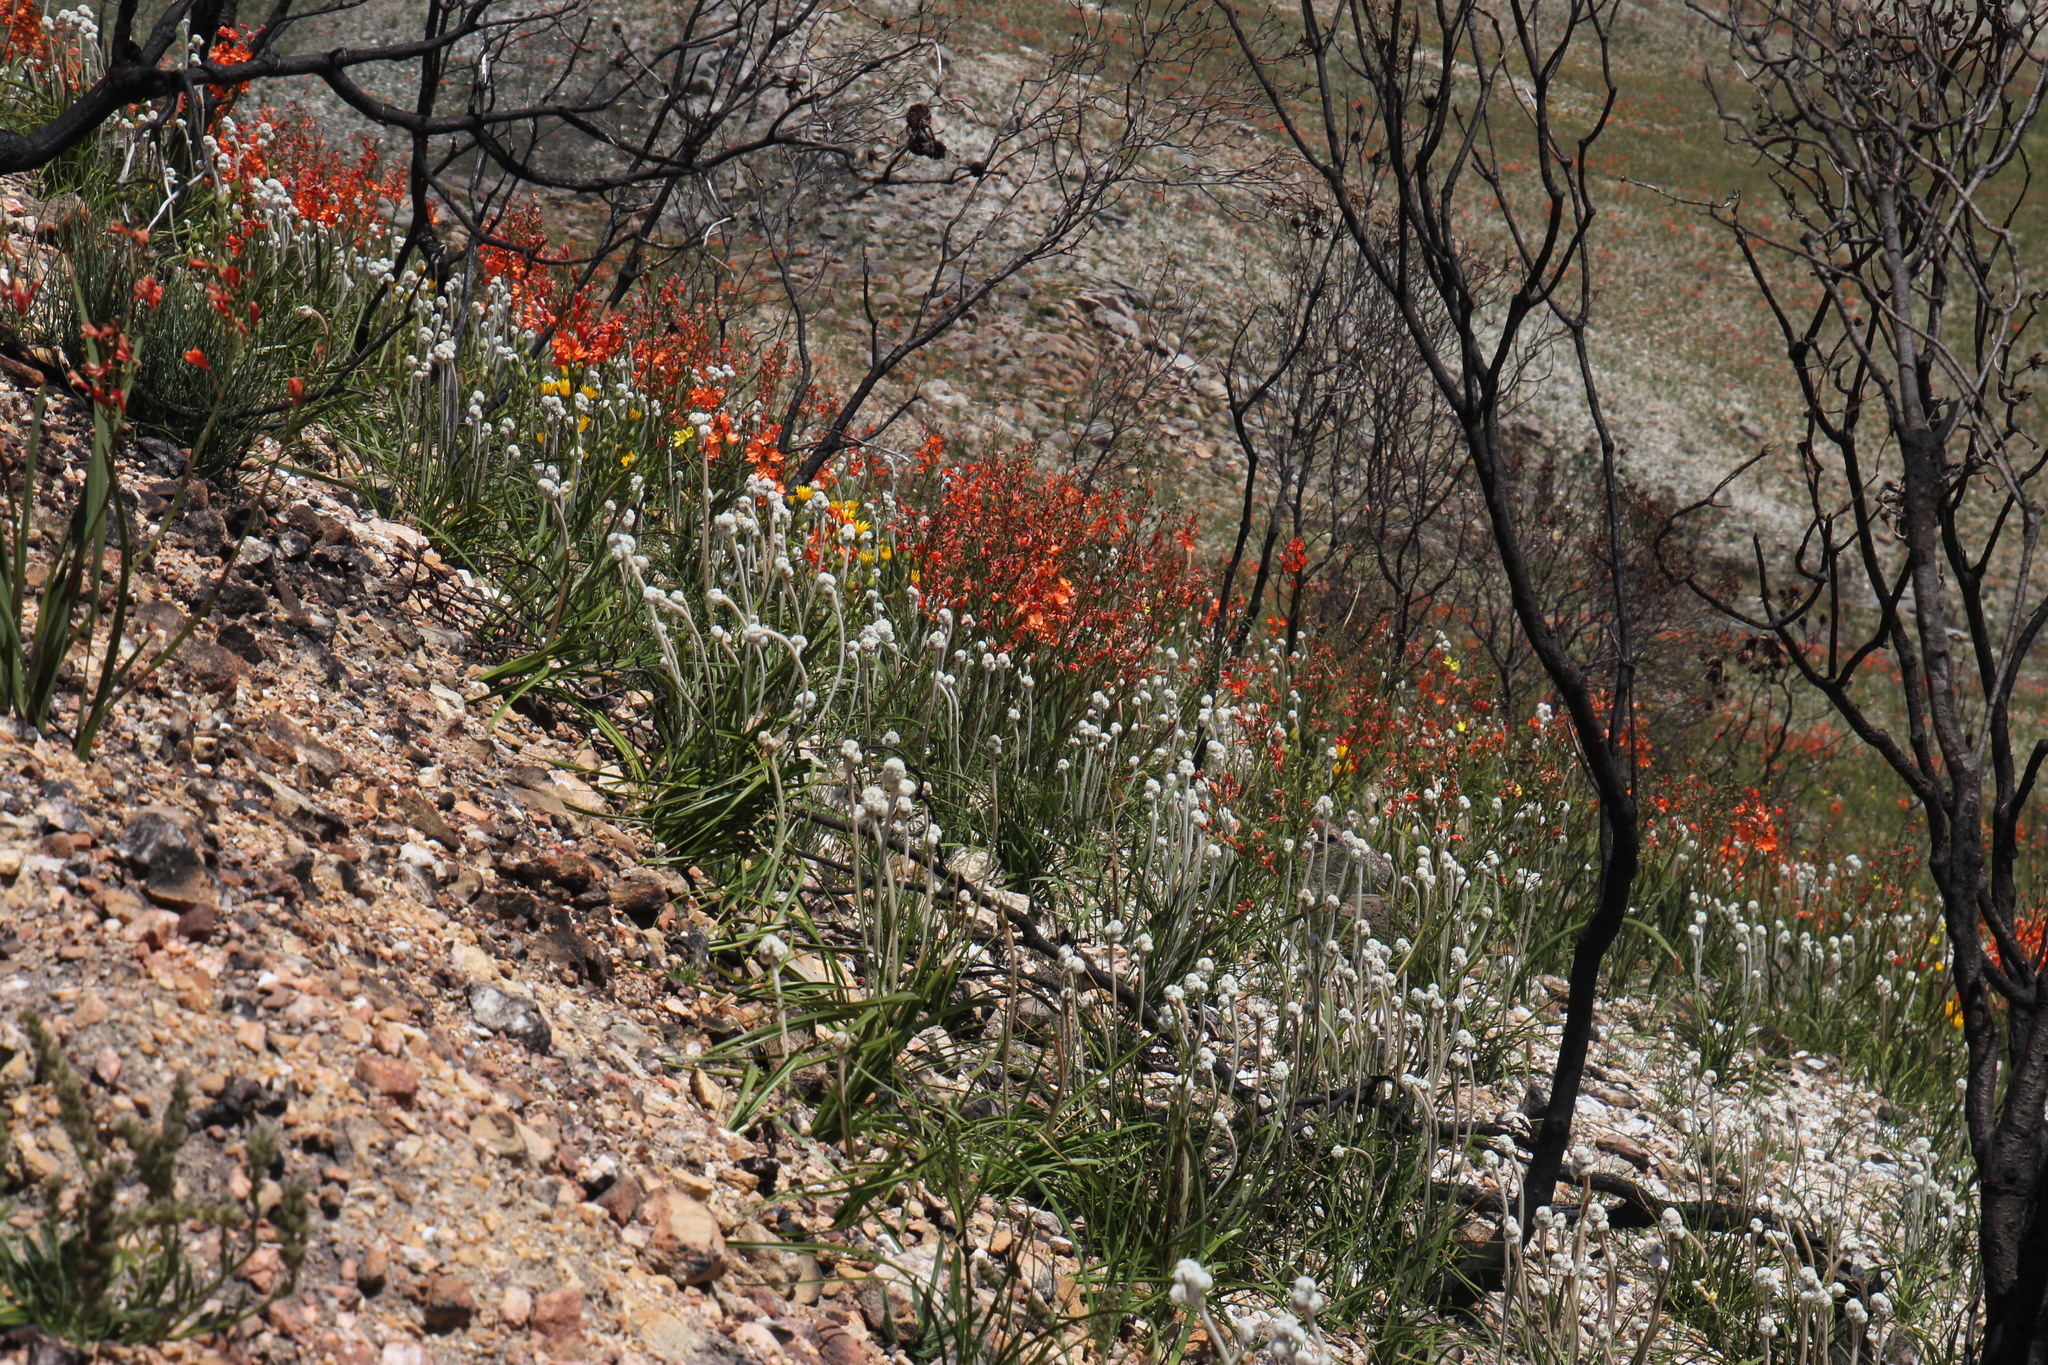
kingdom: Plantae
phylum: Tracheophyta
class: Liliopsida
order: Asparagales
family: Iridaceae
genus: Pillansia
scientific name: Pillansia templemannii
